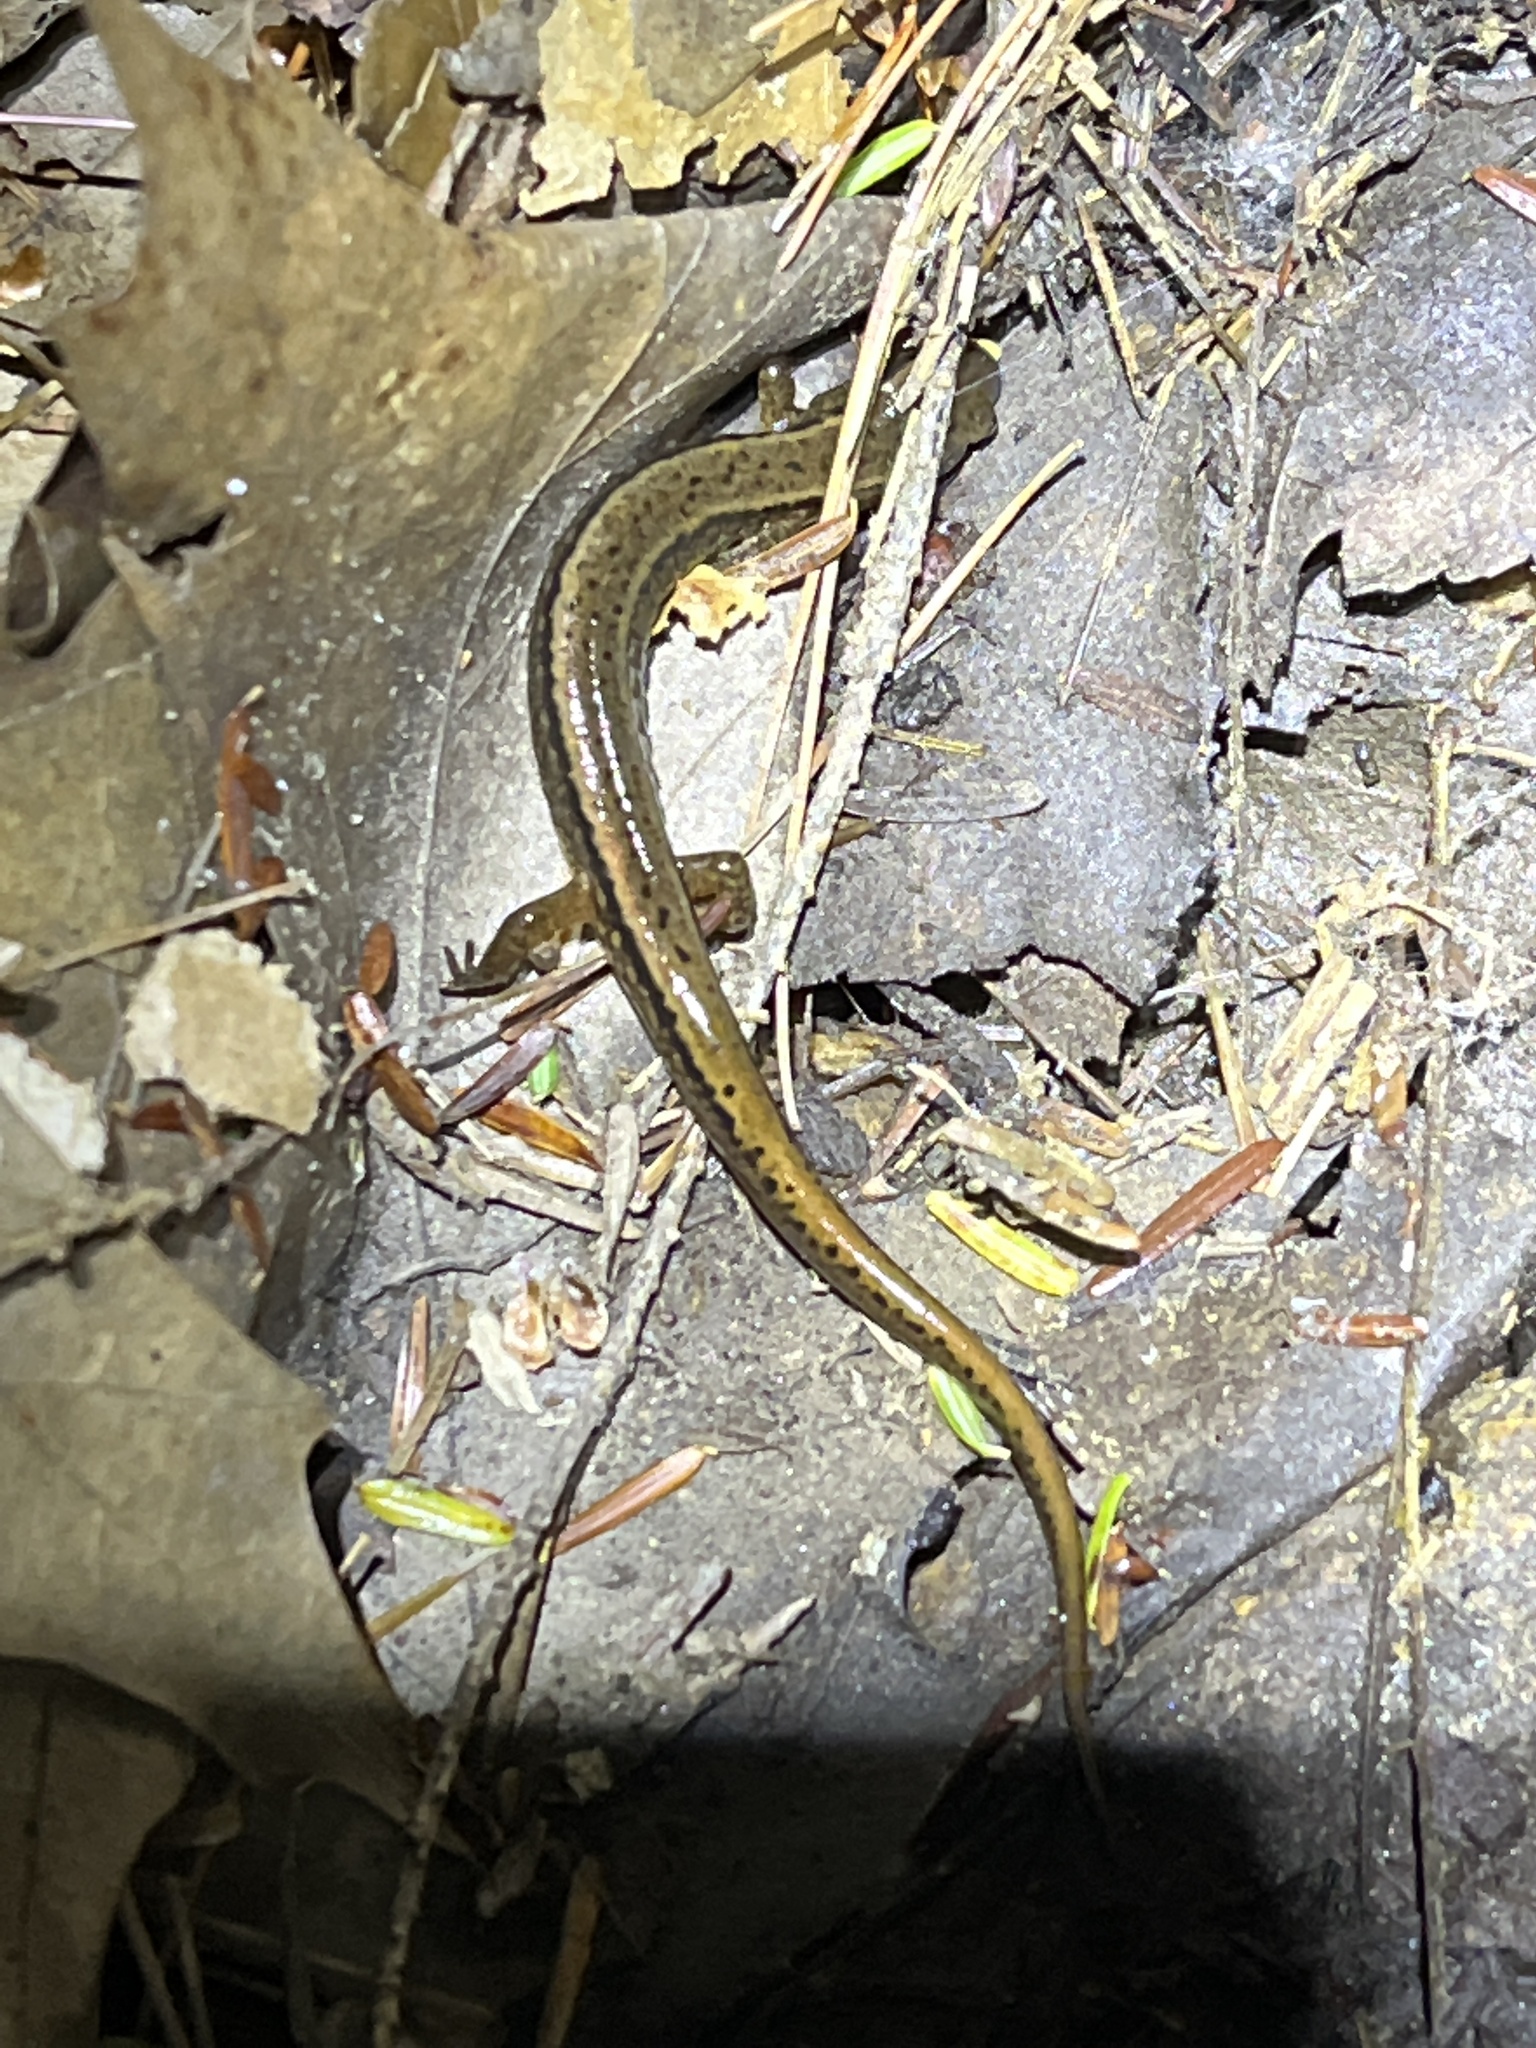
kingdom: Animalia
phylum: Chordata
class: Amphibia
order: Caudata
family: Plethodontidae
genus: Eurycea
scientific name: Eurycea bislineata
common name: Northern two-lined salamander
